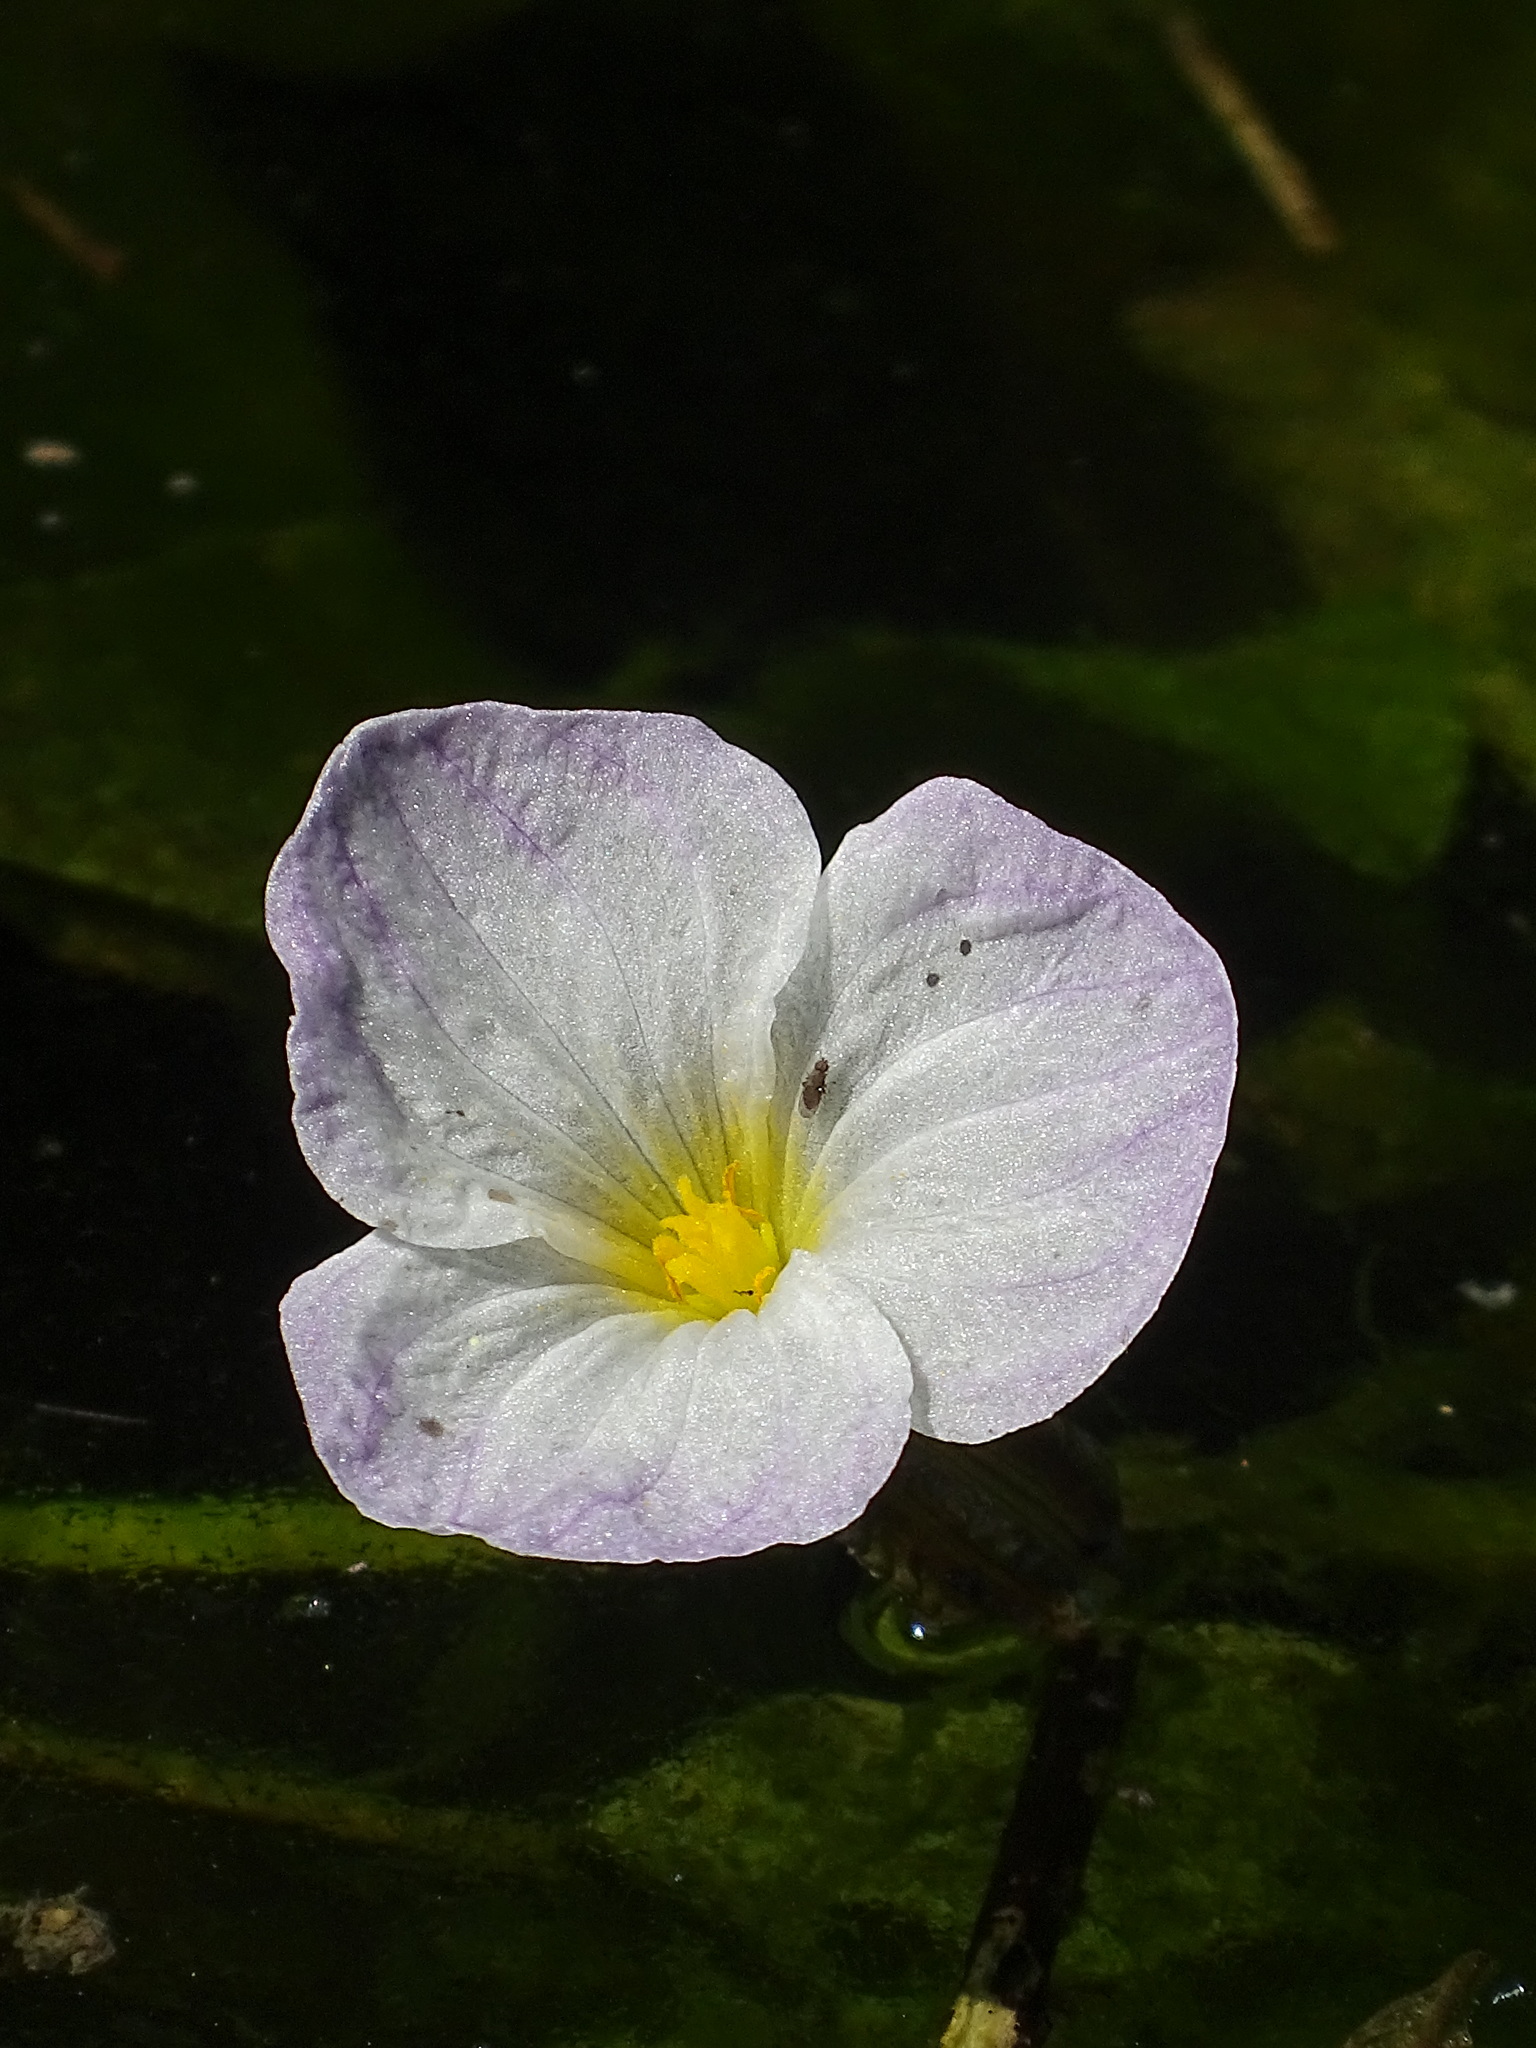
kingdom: Plantae
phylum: Tracheophyta
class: Liliopsida
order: Alismatales
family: Hydrocharitaceae
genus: Ottelia
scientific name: Ottelia alismoides
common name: Duck-lettuce
